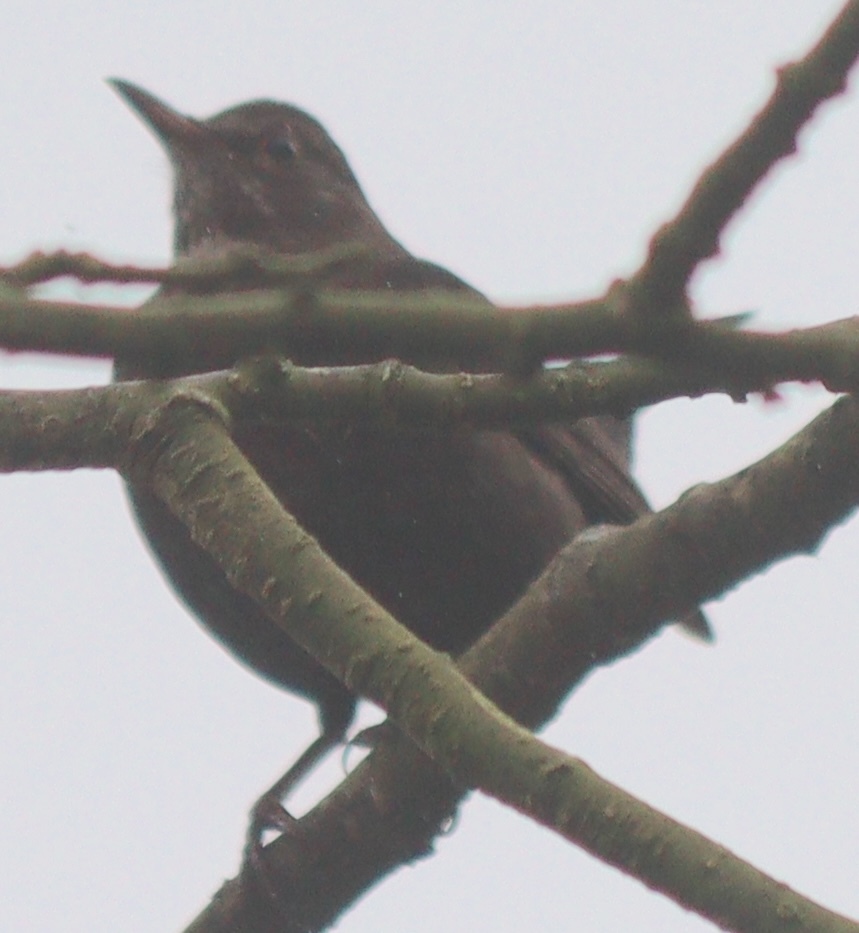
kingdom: Animalia
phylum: Chordata
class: Aves
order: Passeriformes
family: Turdidae
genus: Turdus
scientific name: Turdus merula
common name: Common blackbird
